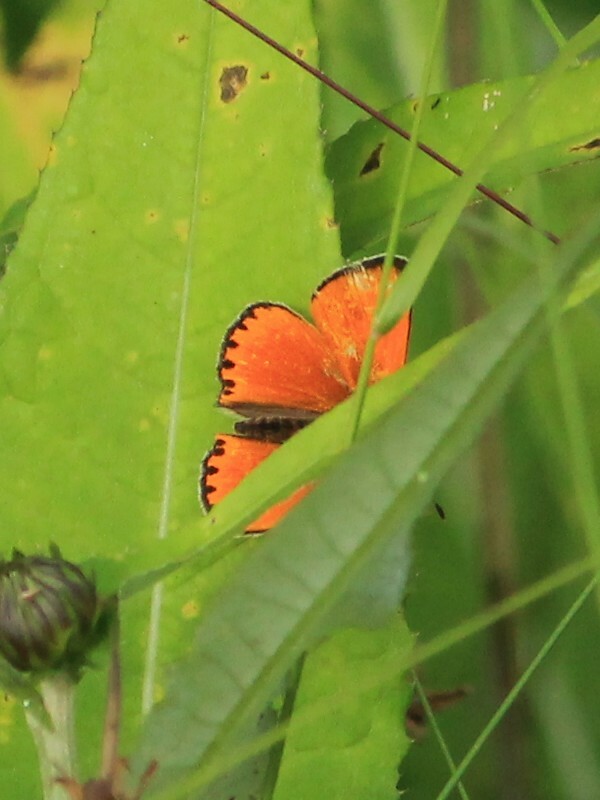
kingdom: Animalia
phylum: Arthropoda
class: Insecta
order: Lepidoptera
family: Lycaenidae
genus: Lycaena
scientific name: Lycaena virgaureae
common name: Scarce copper
